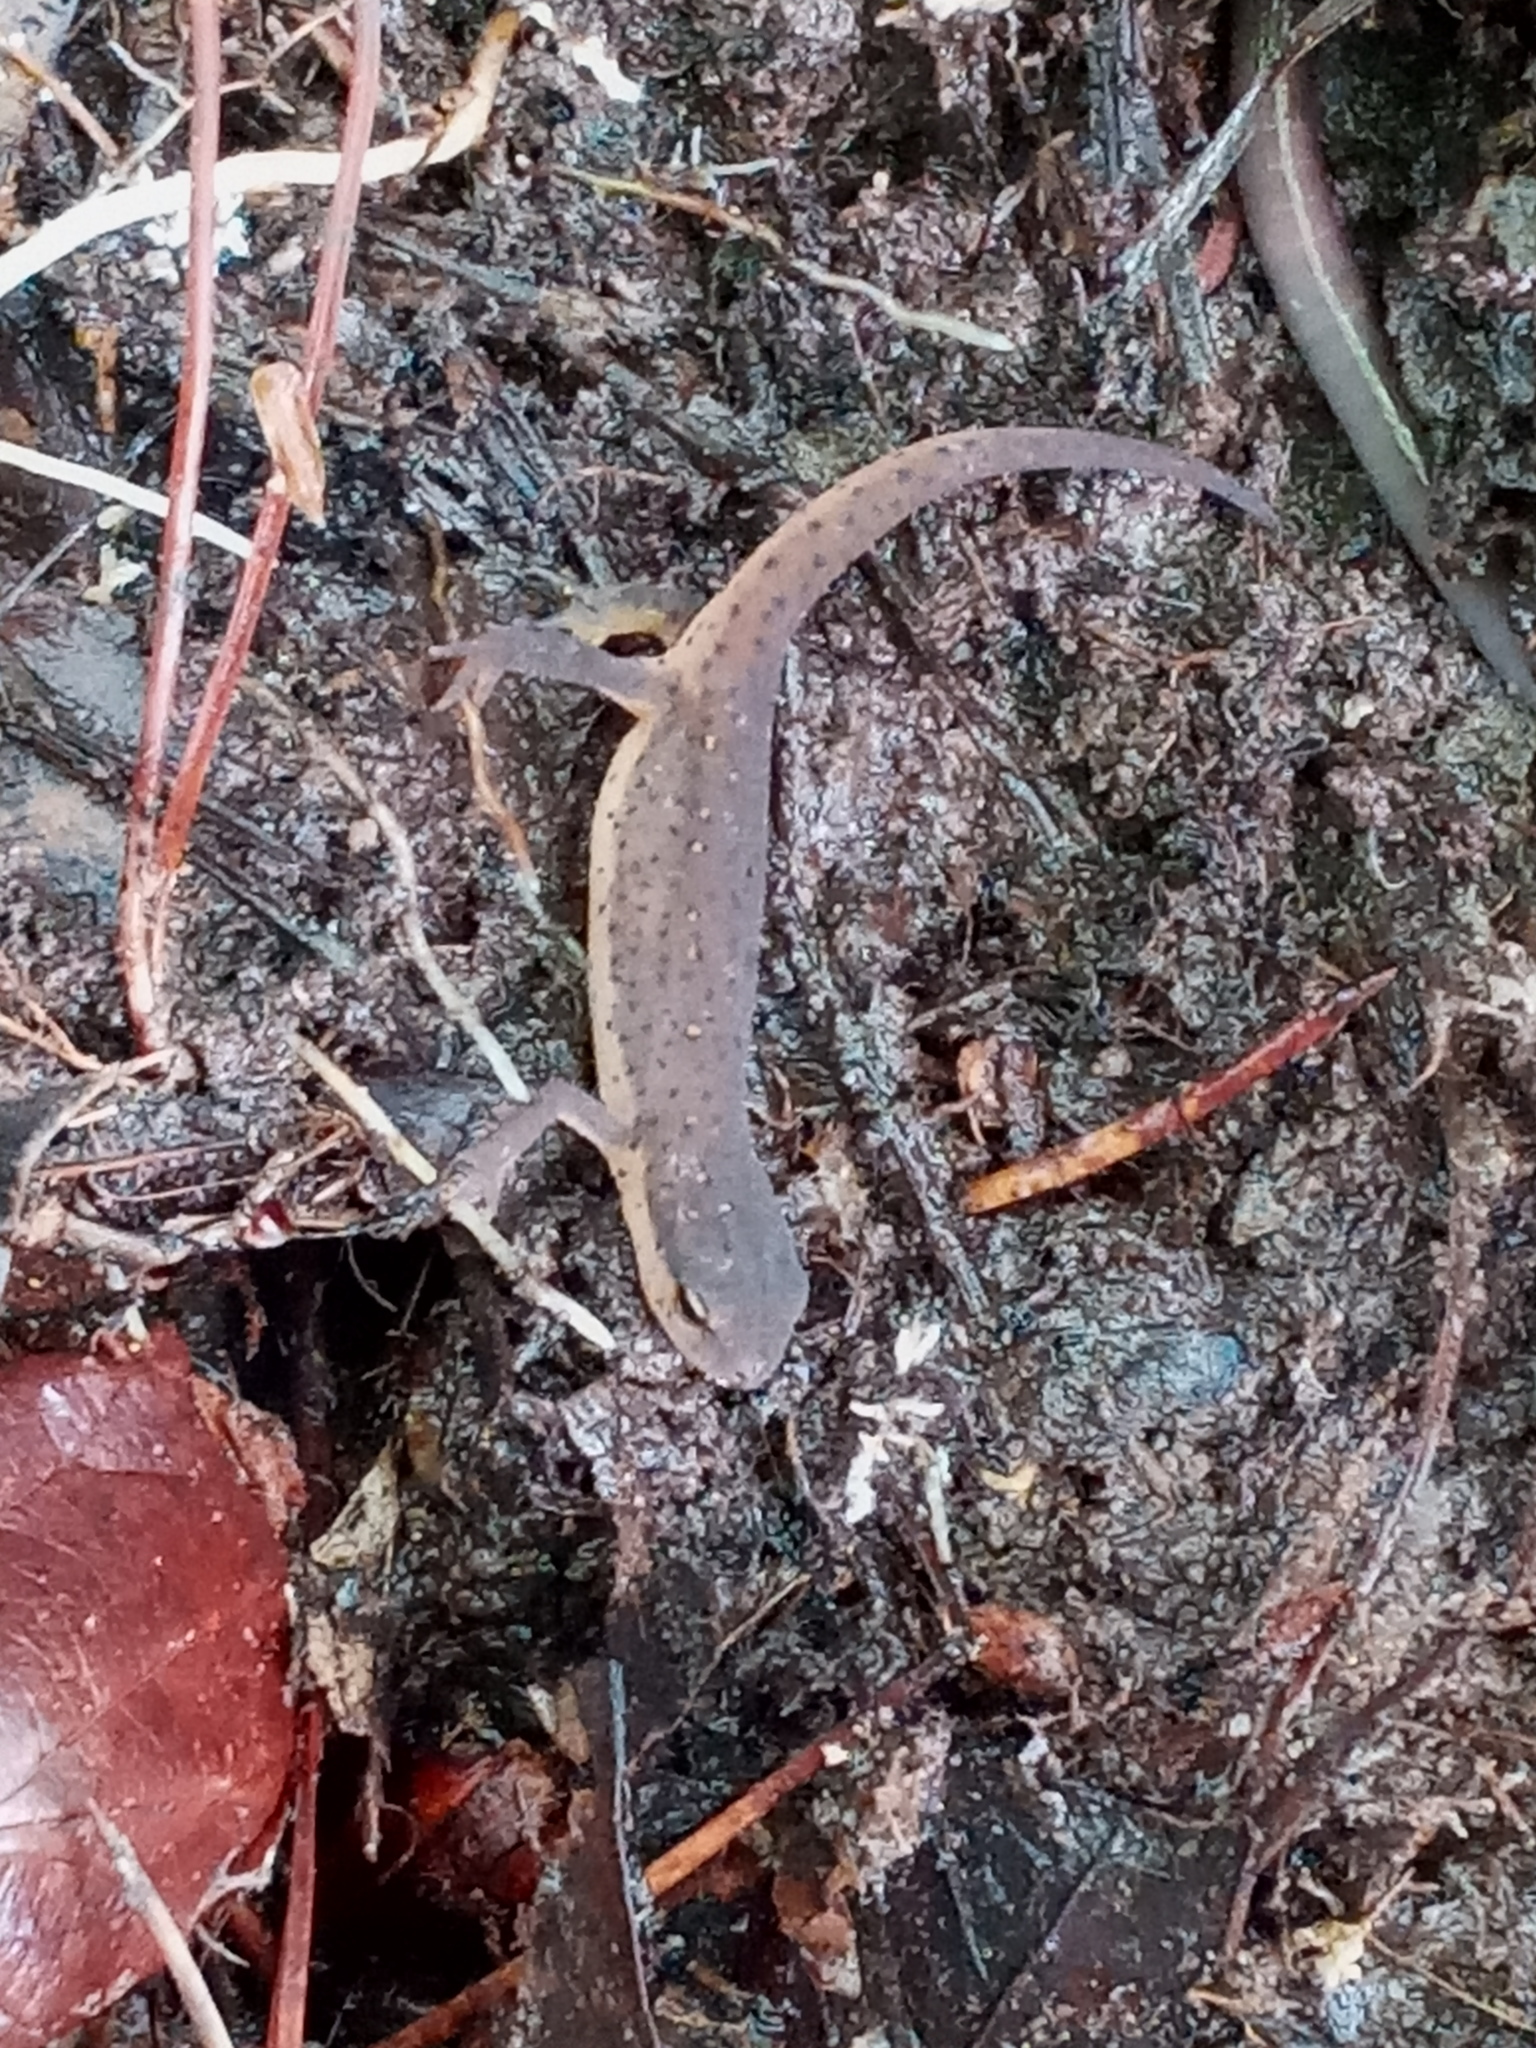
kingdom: Animalia
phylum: Chordata
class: Amphibia
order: Caudata
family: Salamandridae
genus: Notophthalmus
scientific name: Notophthalmus viridescens
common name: Eastern newt
